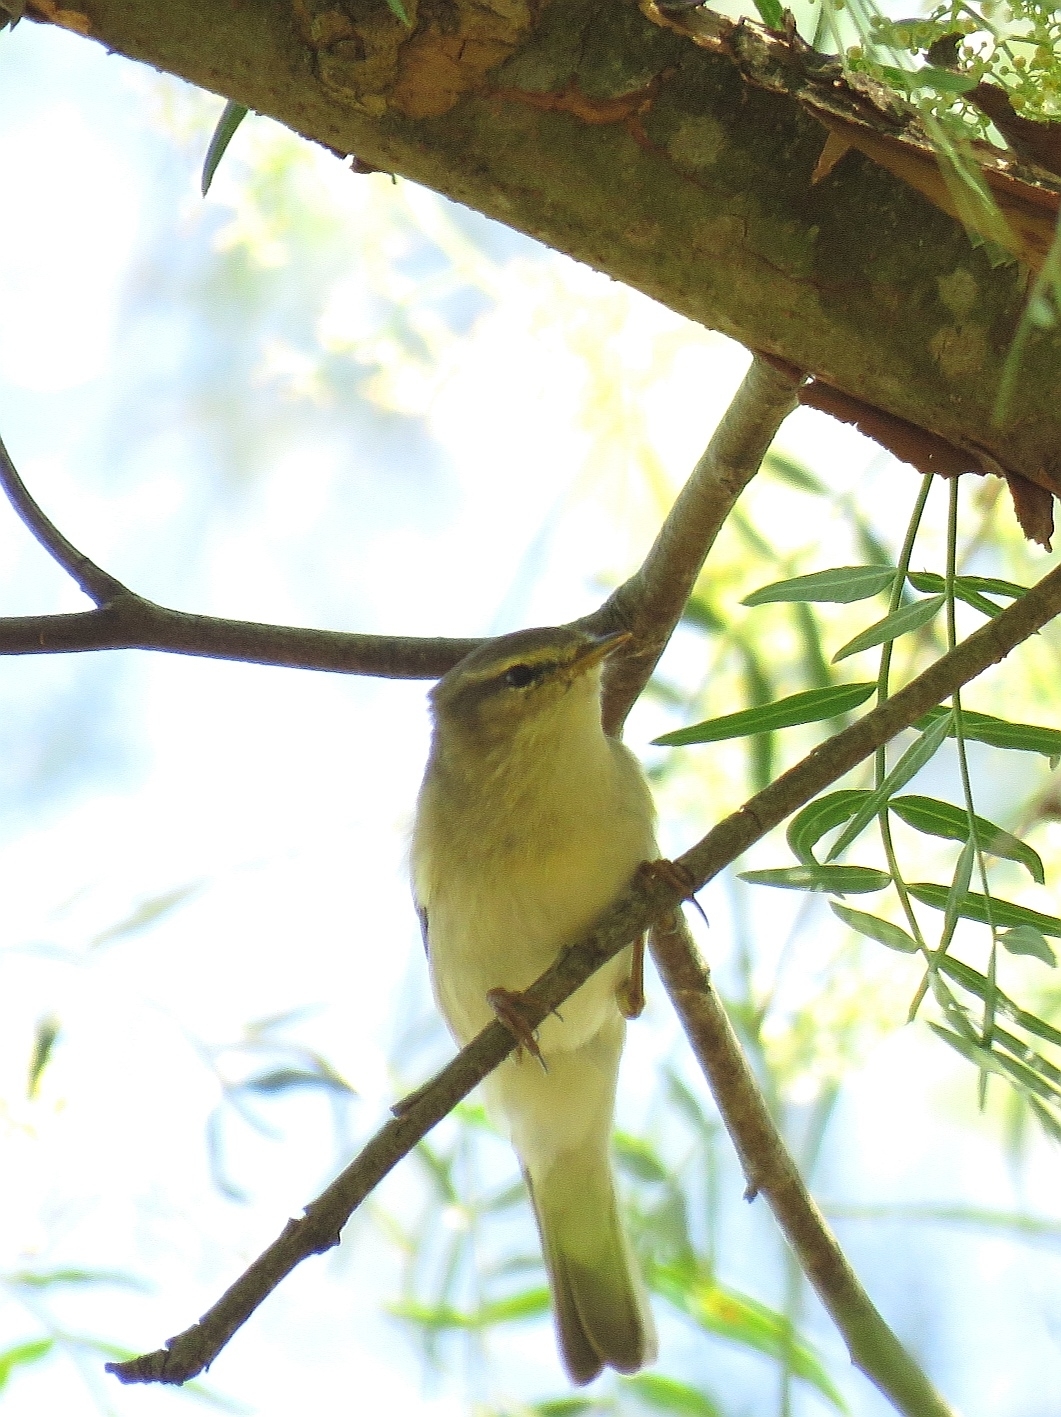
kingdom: Animalia
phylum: Chordata
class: Aves
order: Passeriformes
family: Phylloscopidae
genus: Phylloscopus
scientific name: Phylloscopus trochilus
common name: Willow warbler
